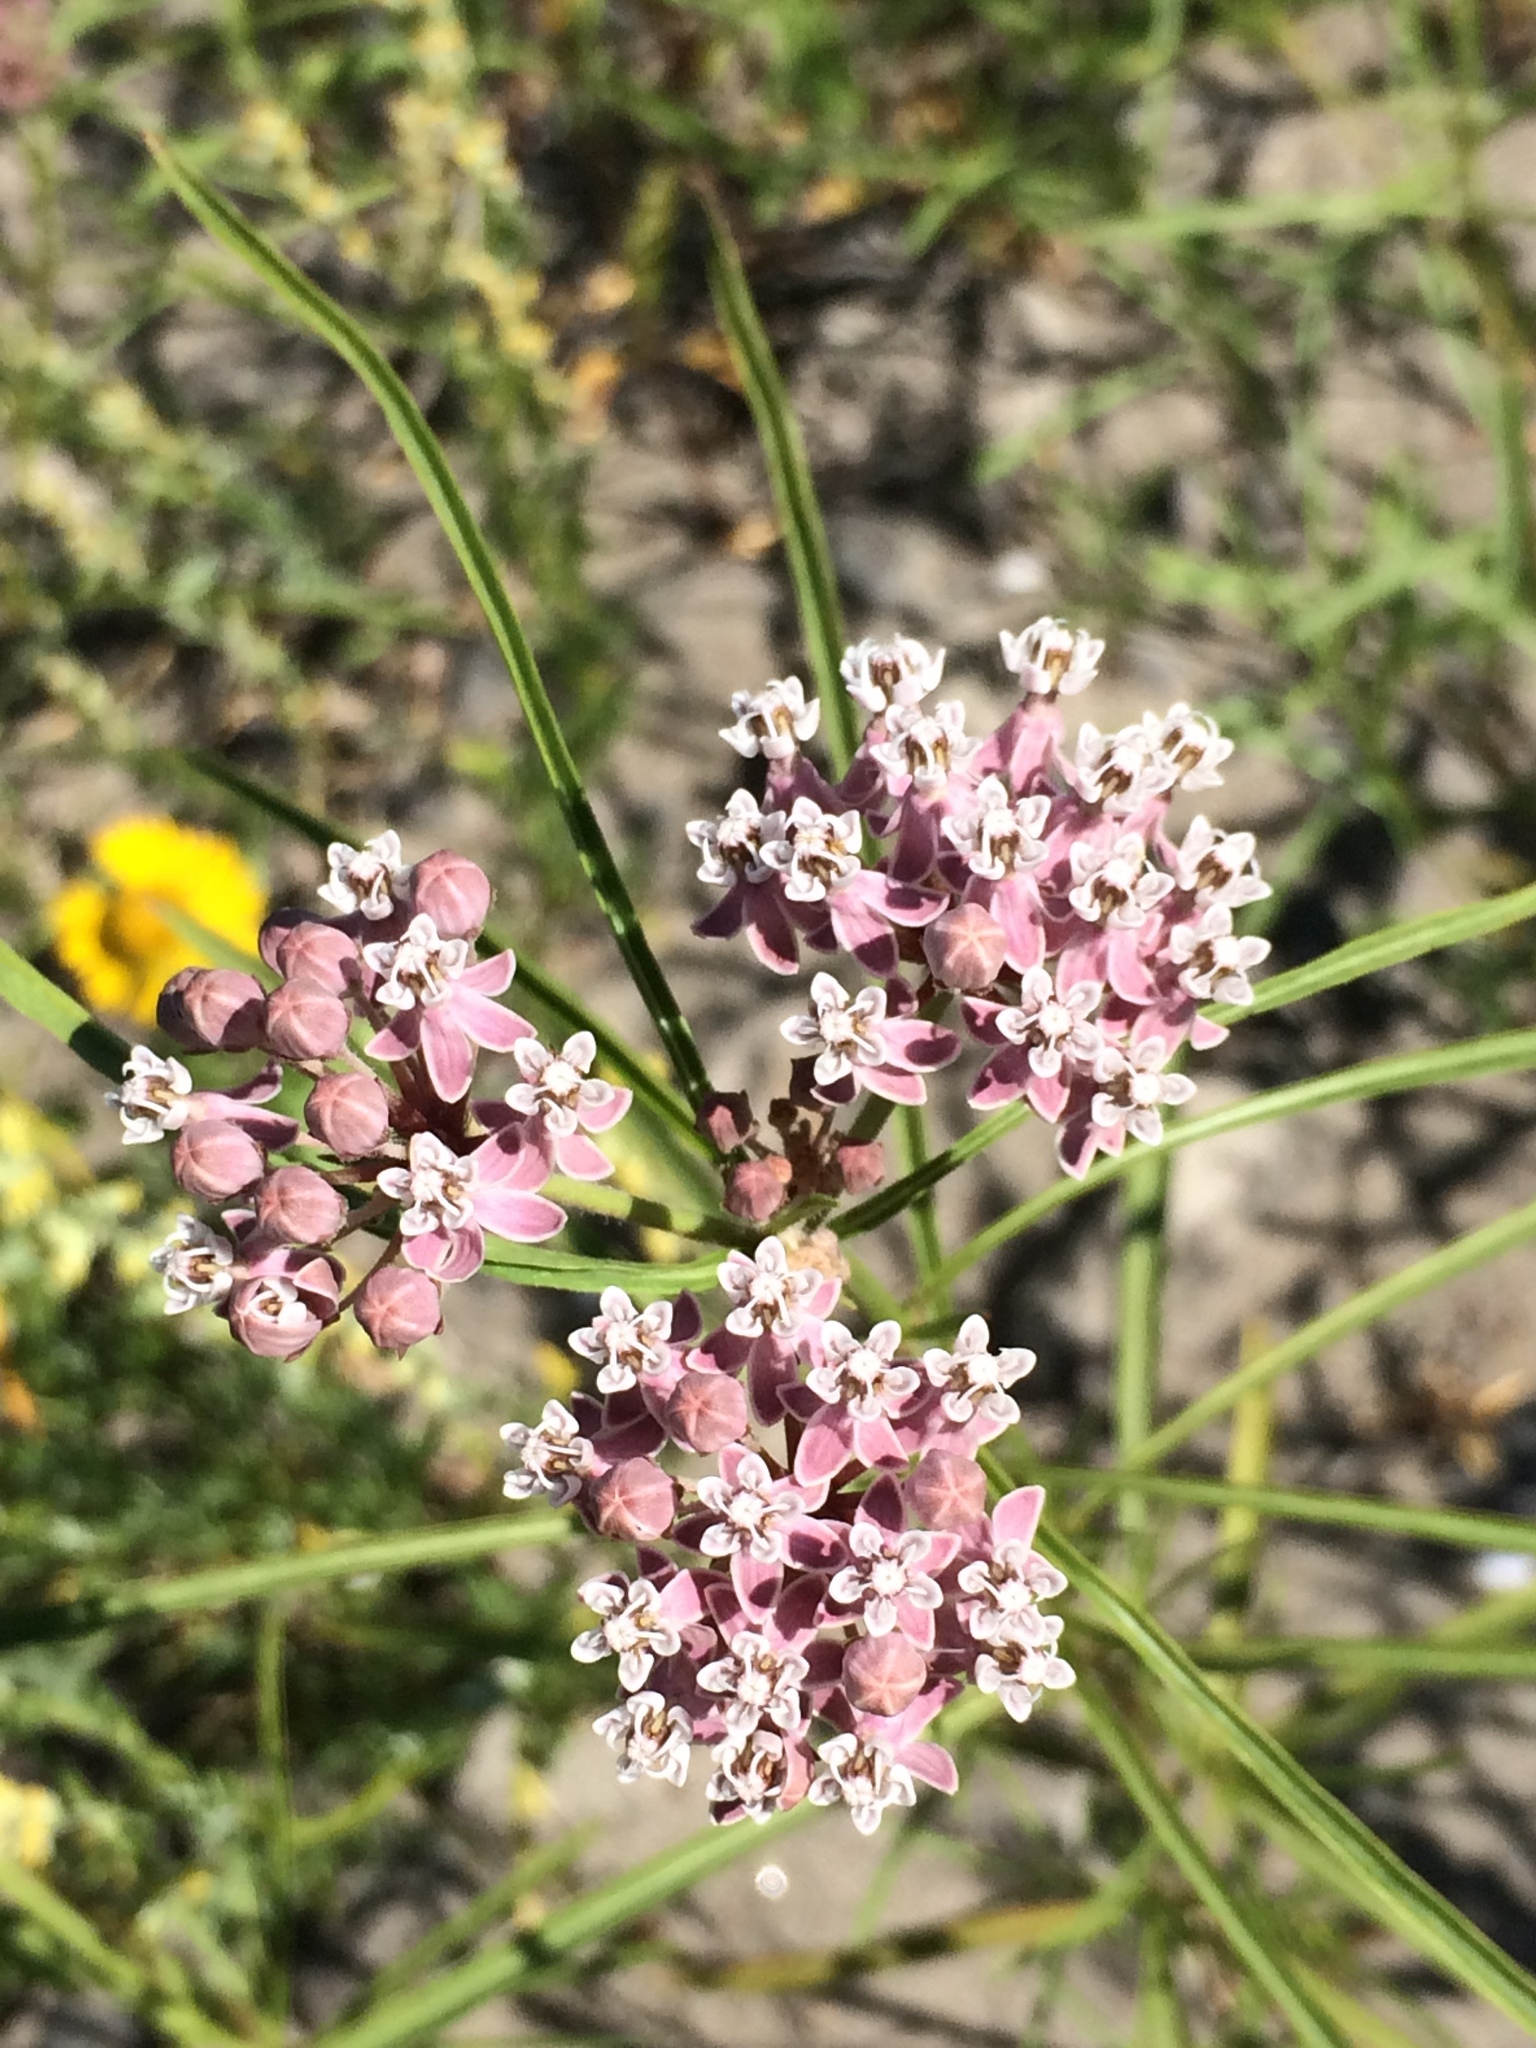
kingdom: Plantae
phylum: Tracheophyta
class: Magnoliopsida
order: Gentianales
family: Apocynaceae
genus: Asclepias
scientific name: Asclepias fascicularis
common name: Mexican milkweed
